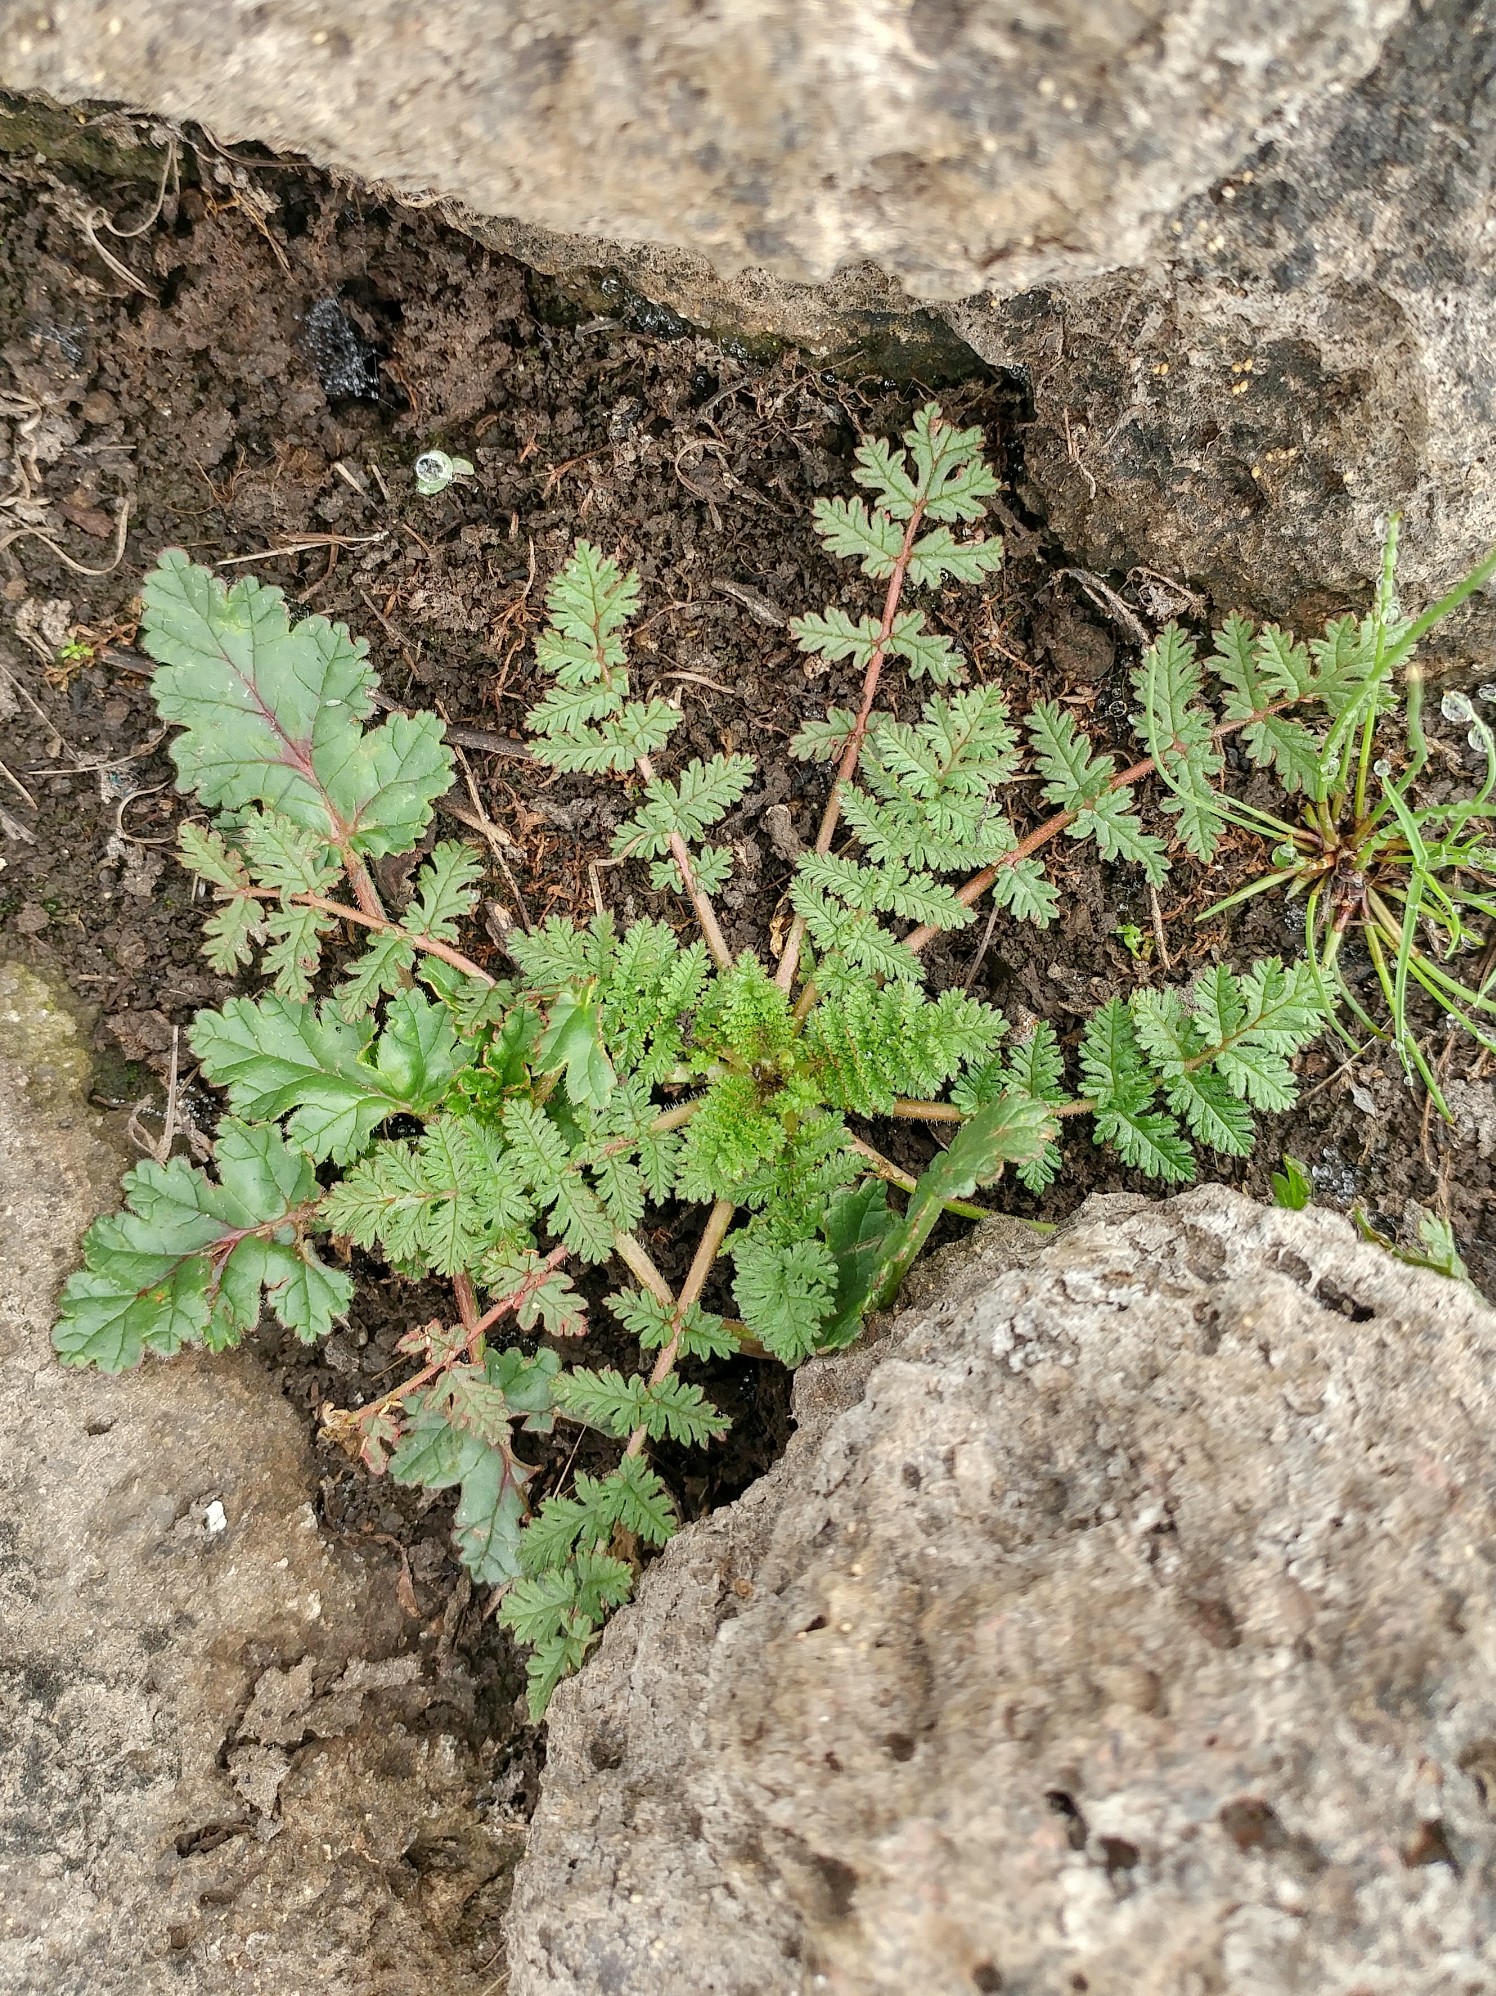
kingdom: Plantae
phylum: Tracheophyta
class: Magnoliopsida
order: Geraniales
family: Geraniaceae
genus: Erodium
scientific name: Erodium cicutarium
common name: Common stork's-bill
